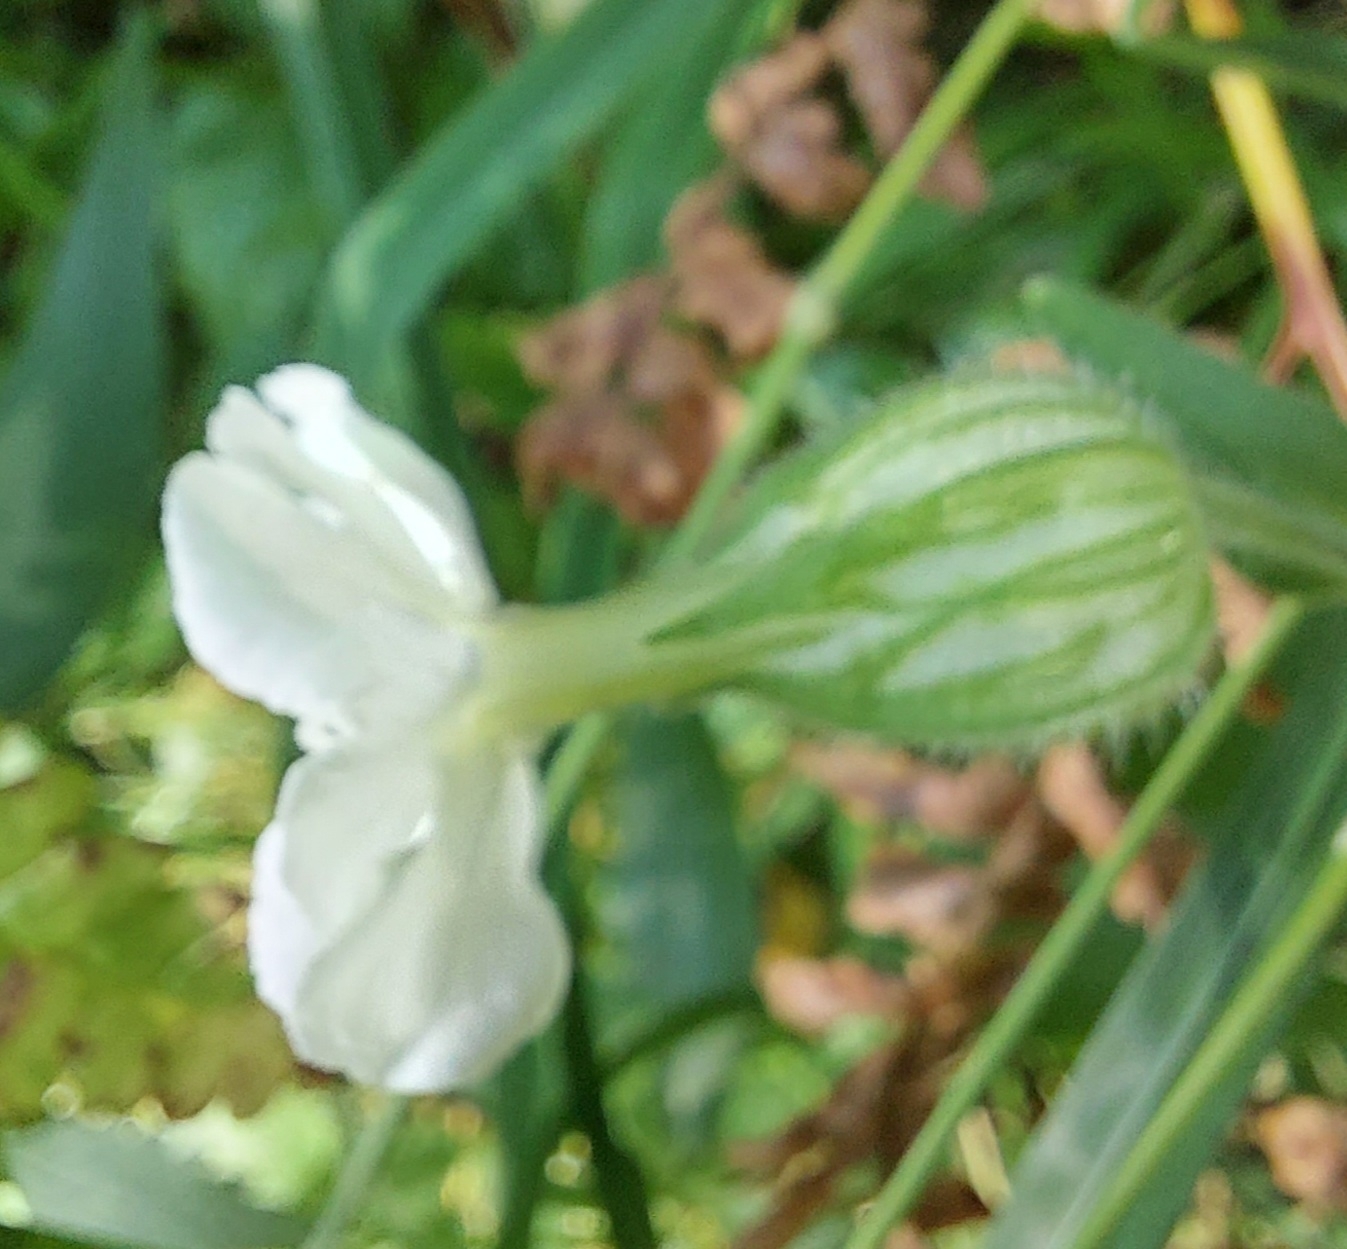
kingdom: Plantae
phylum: Tracheophyta
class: Magnoliopsida
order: Caryophyllales
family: Caryophyllaceae
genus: Silene
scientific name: Silene latifolia
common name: White campion
